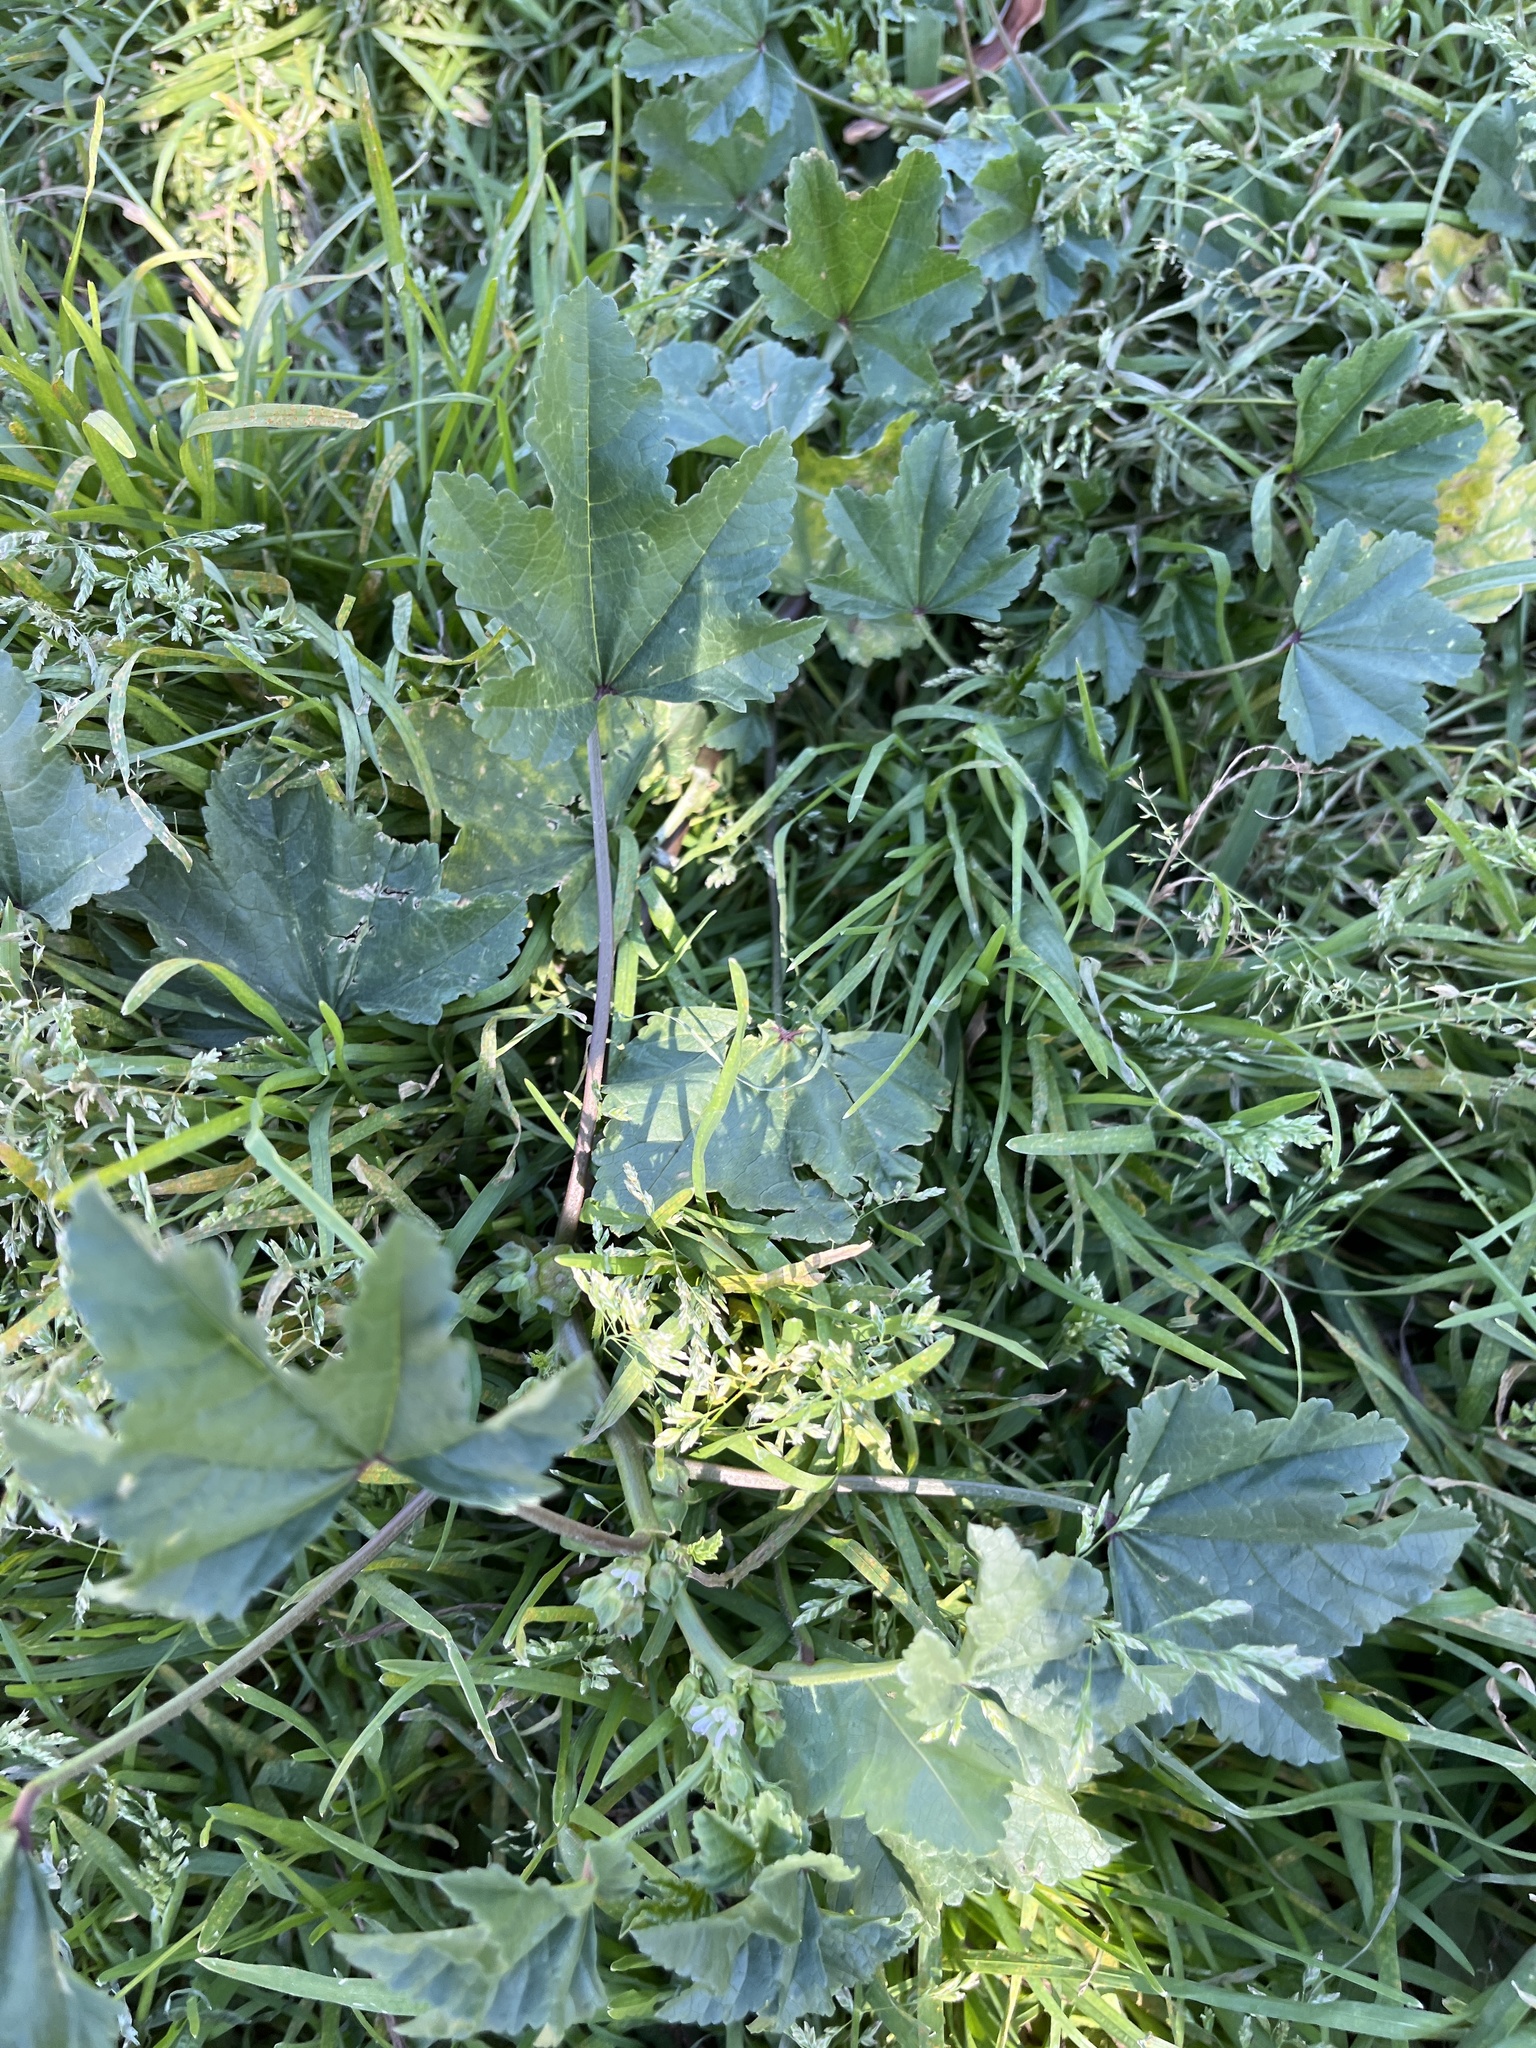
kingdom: Plantae
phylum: Tracheophyta
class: Magnoliopsida
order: Malvales
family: Malvaceae
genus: Malva
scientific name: Malva parviflora
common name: Least mallow
